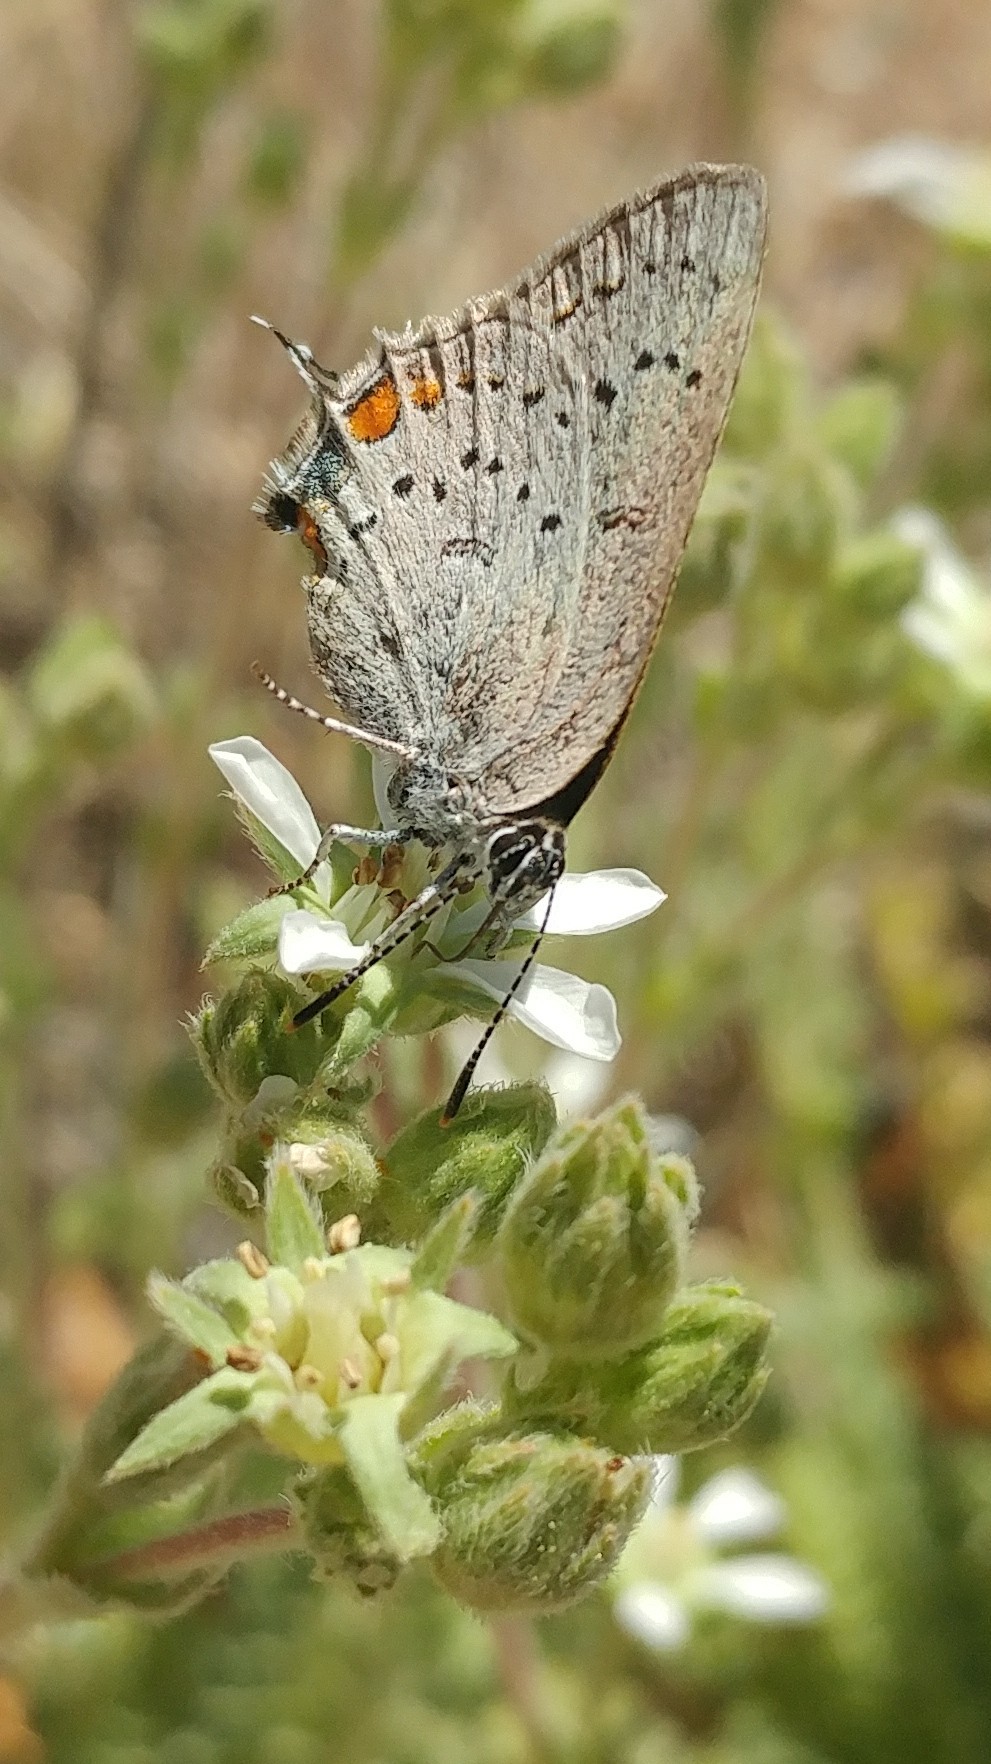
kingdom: Animalia
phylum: Arthropoda
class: Insecta
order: Lepidoptera
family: Lycaenidae
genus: Strymon
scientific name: Strymon acadica
